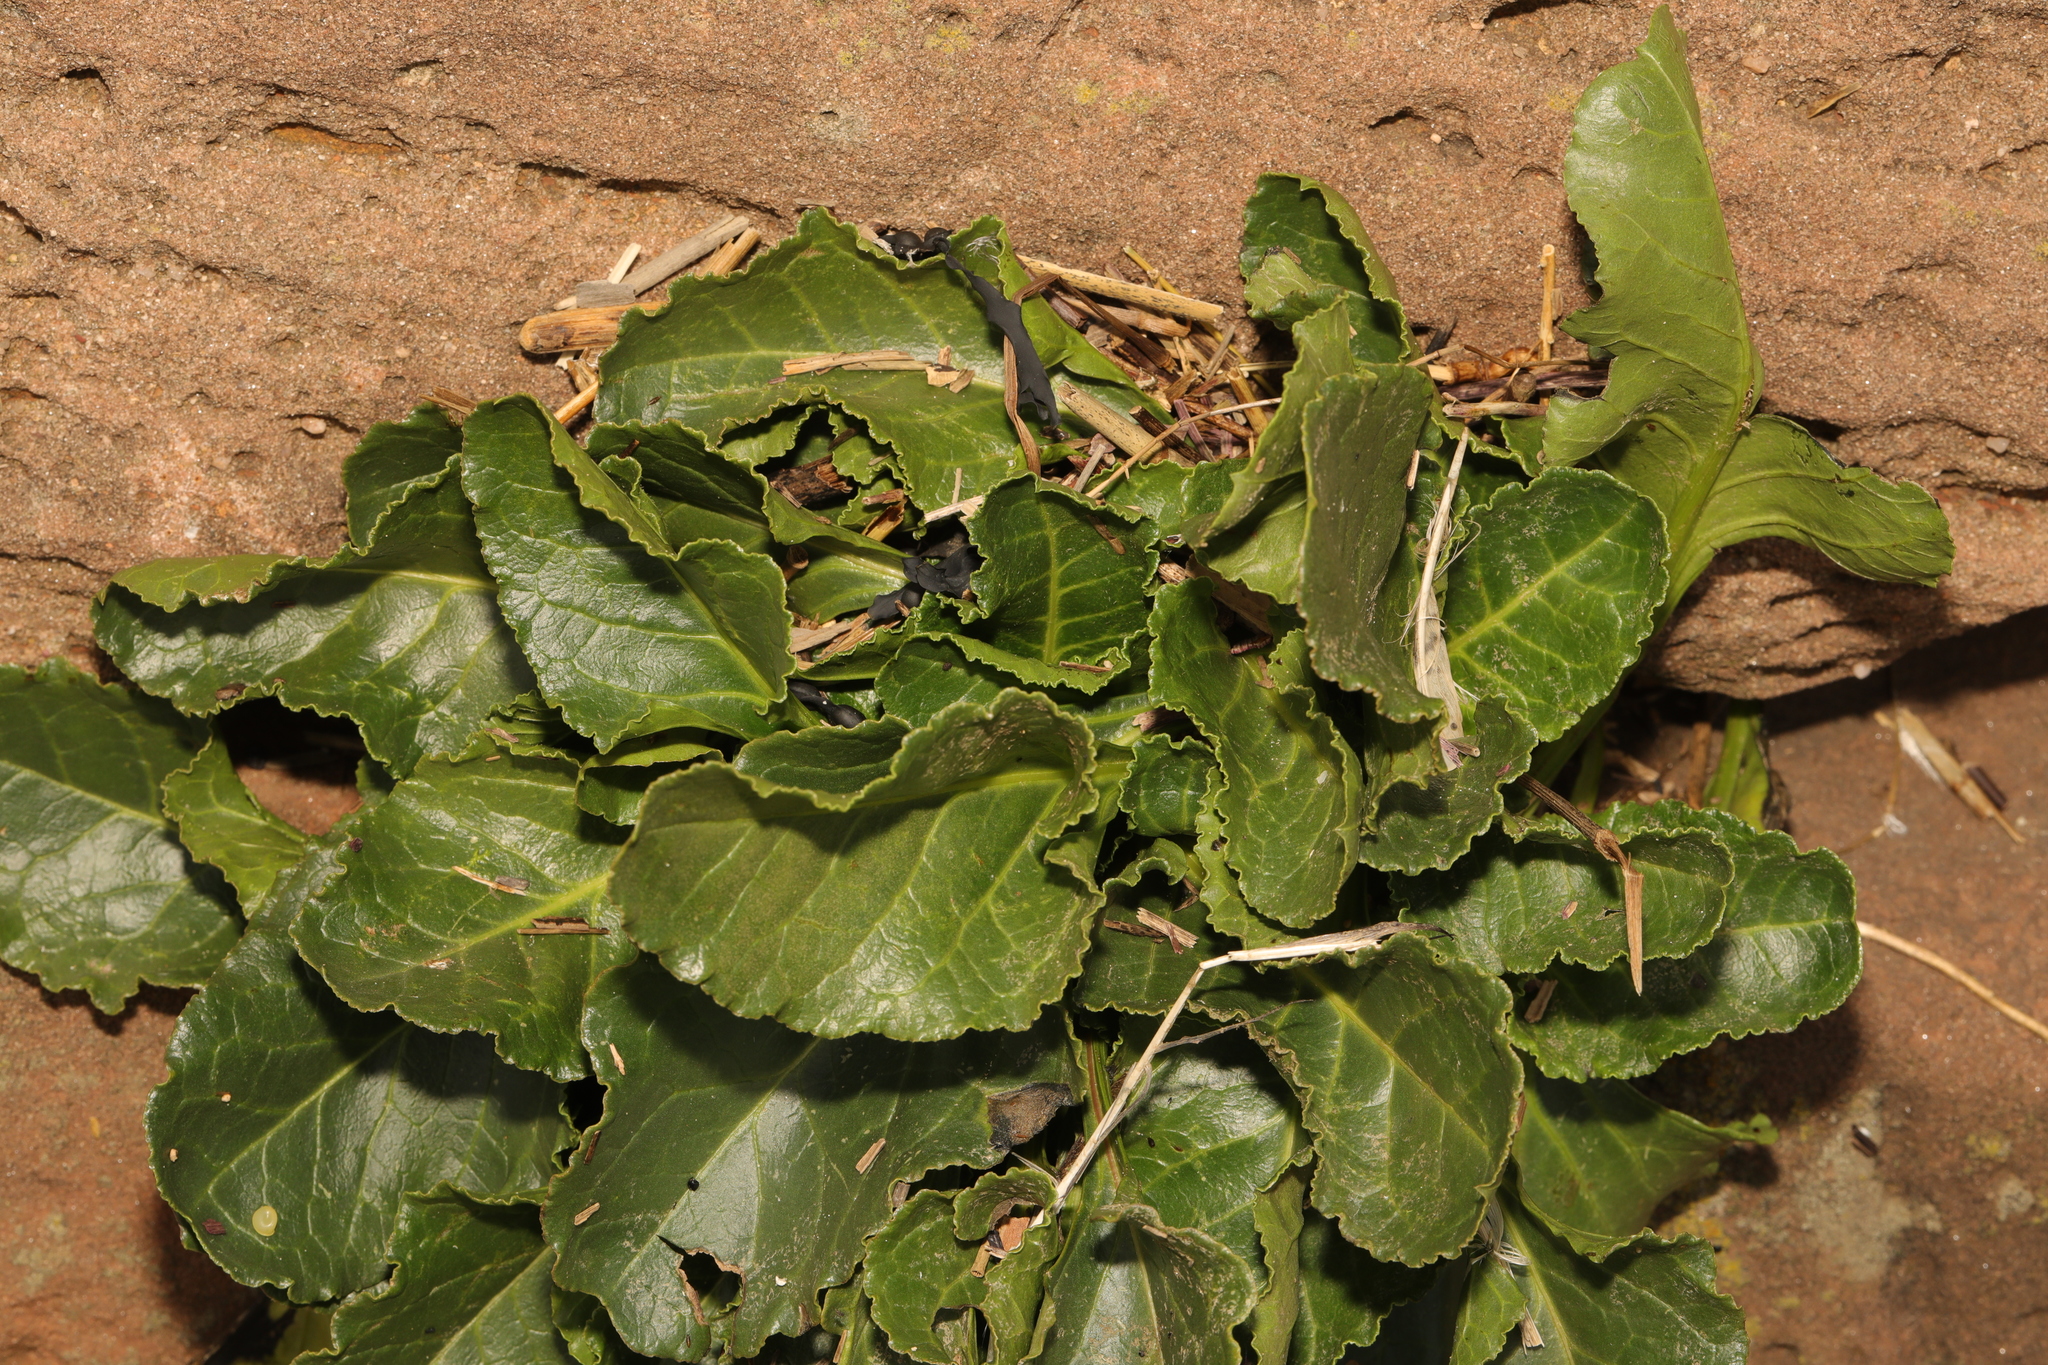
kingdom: Plantae
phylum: Tracheophyta
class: Magnoliopsida
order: Caryophyllales
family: Amaranthaceae
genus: Beta
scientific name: Beta vulgaris
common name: Beet
